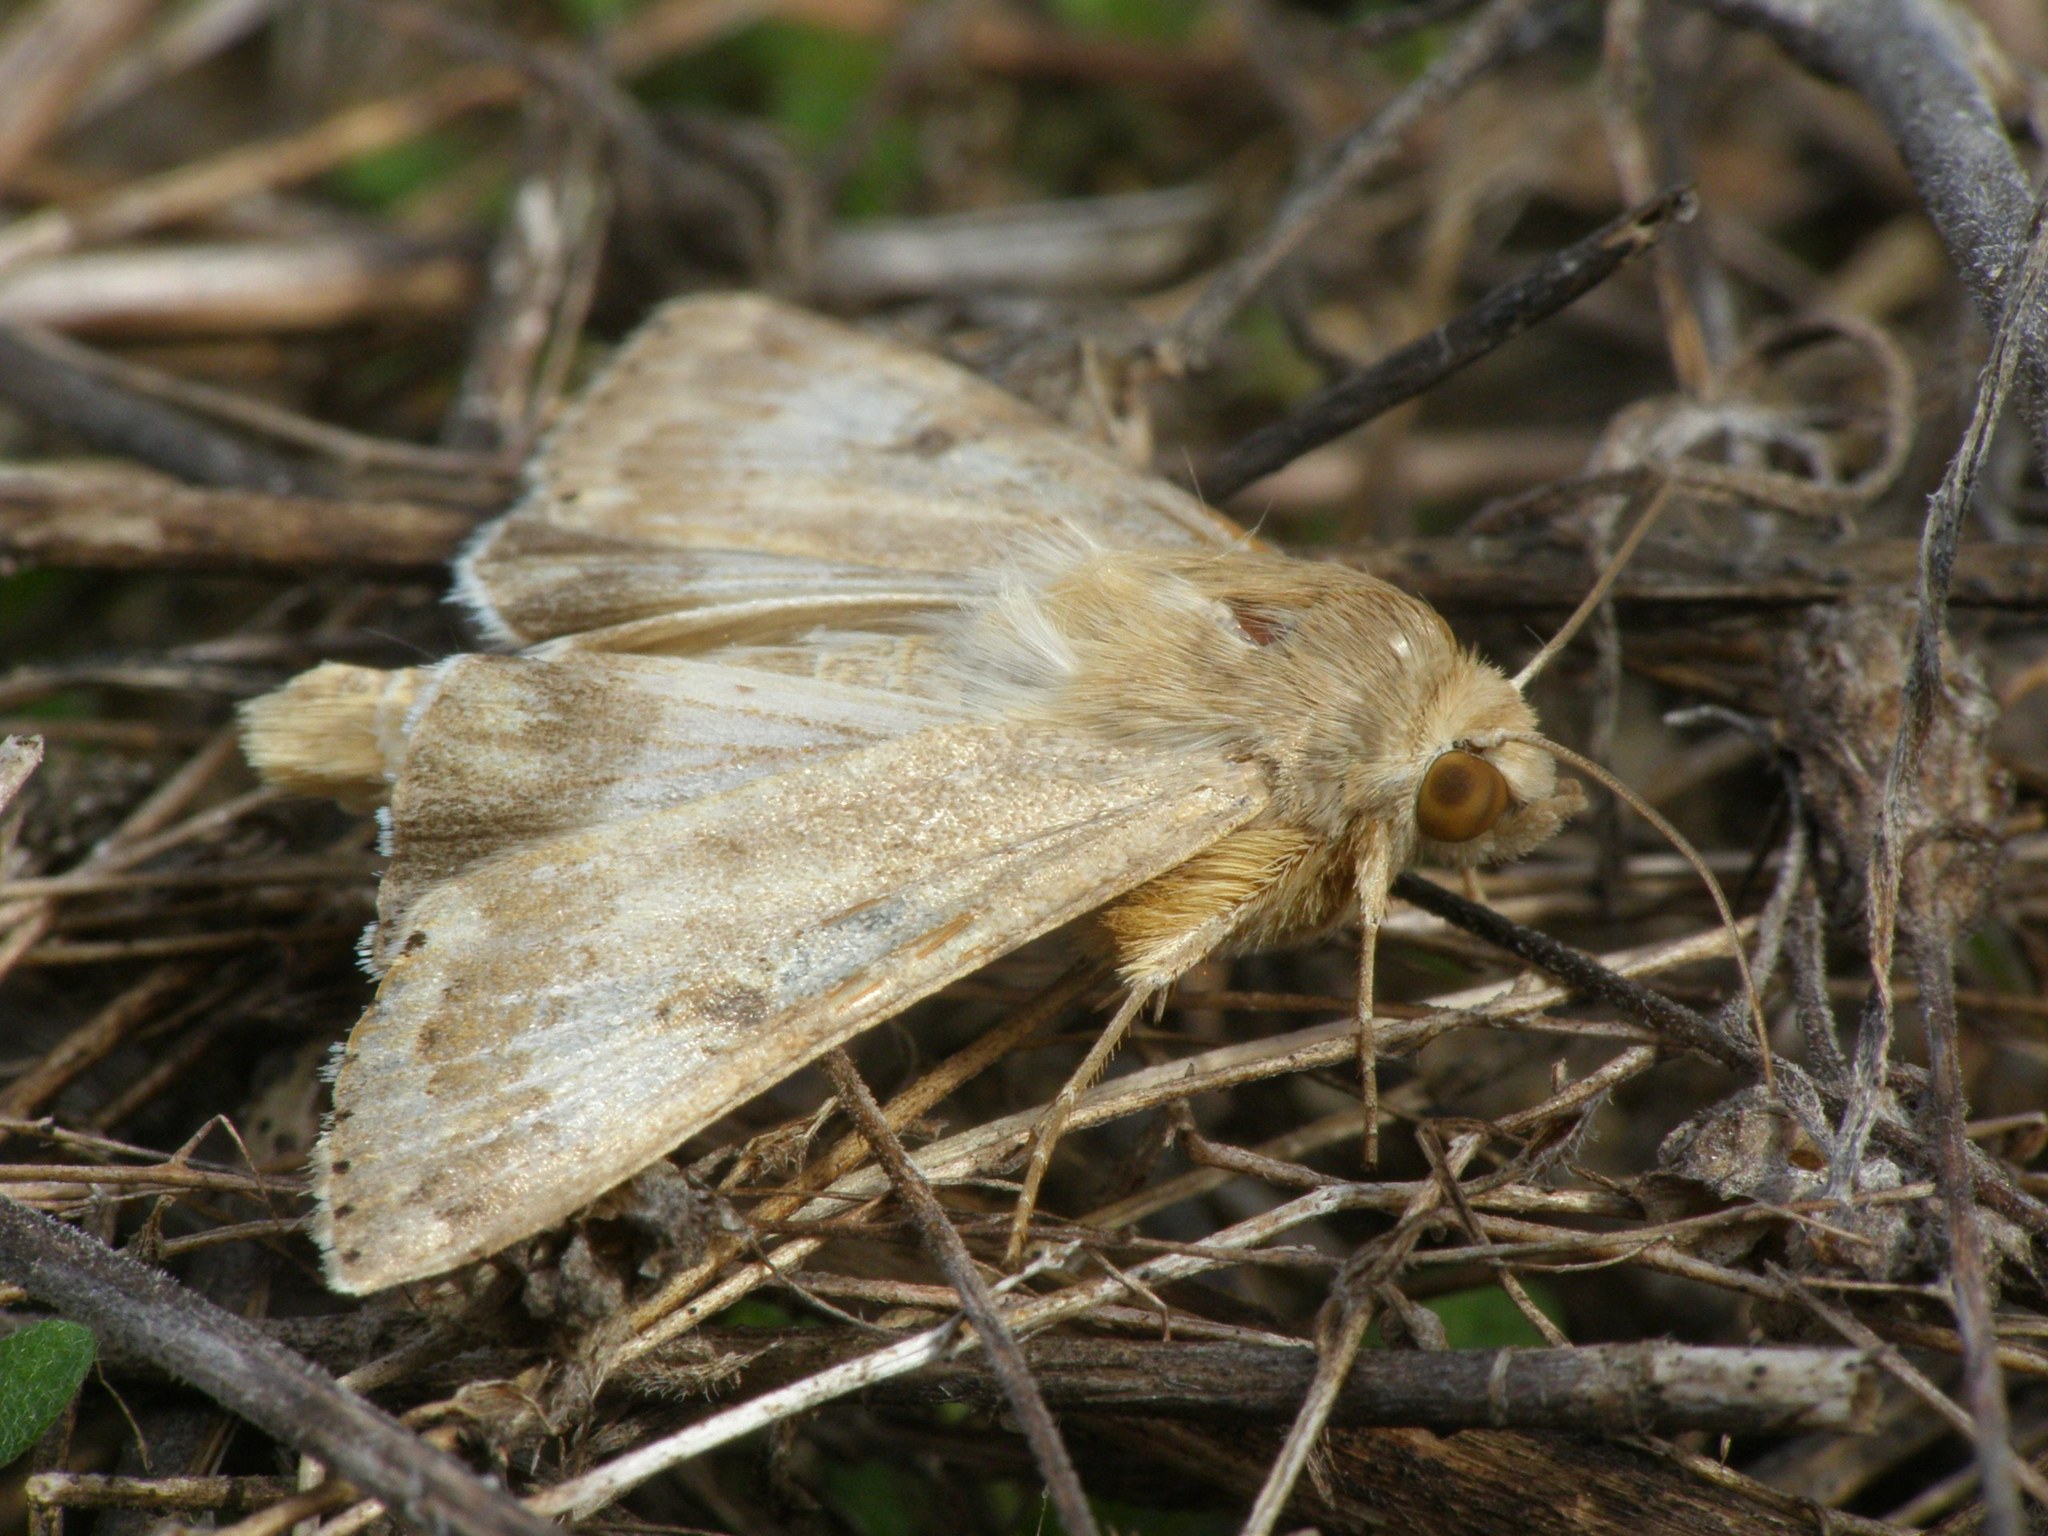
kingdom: Animalia
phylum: Arthropoda
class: Insecta
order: Lepidoptera
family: Noctuidae
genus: Heliothis
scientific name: Heliothis nubigera
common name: Eastern bordered straw
